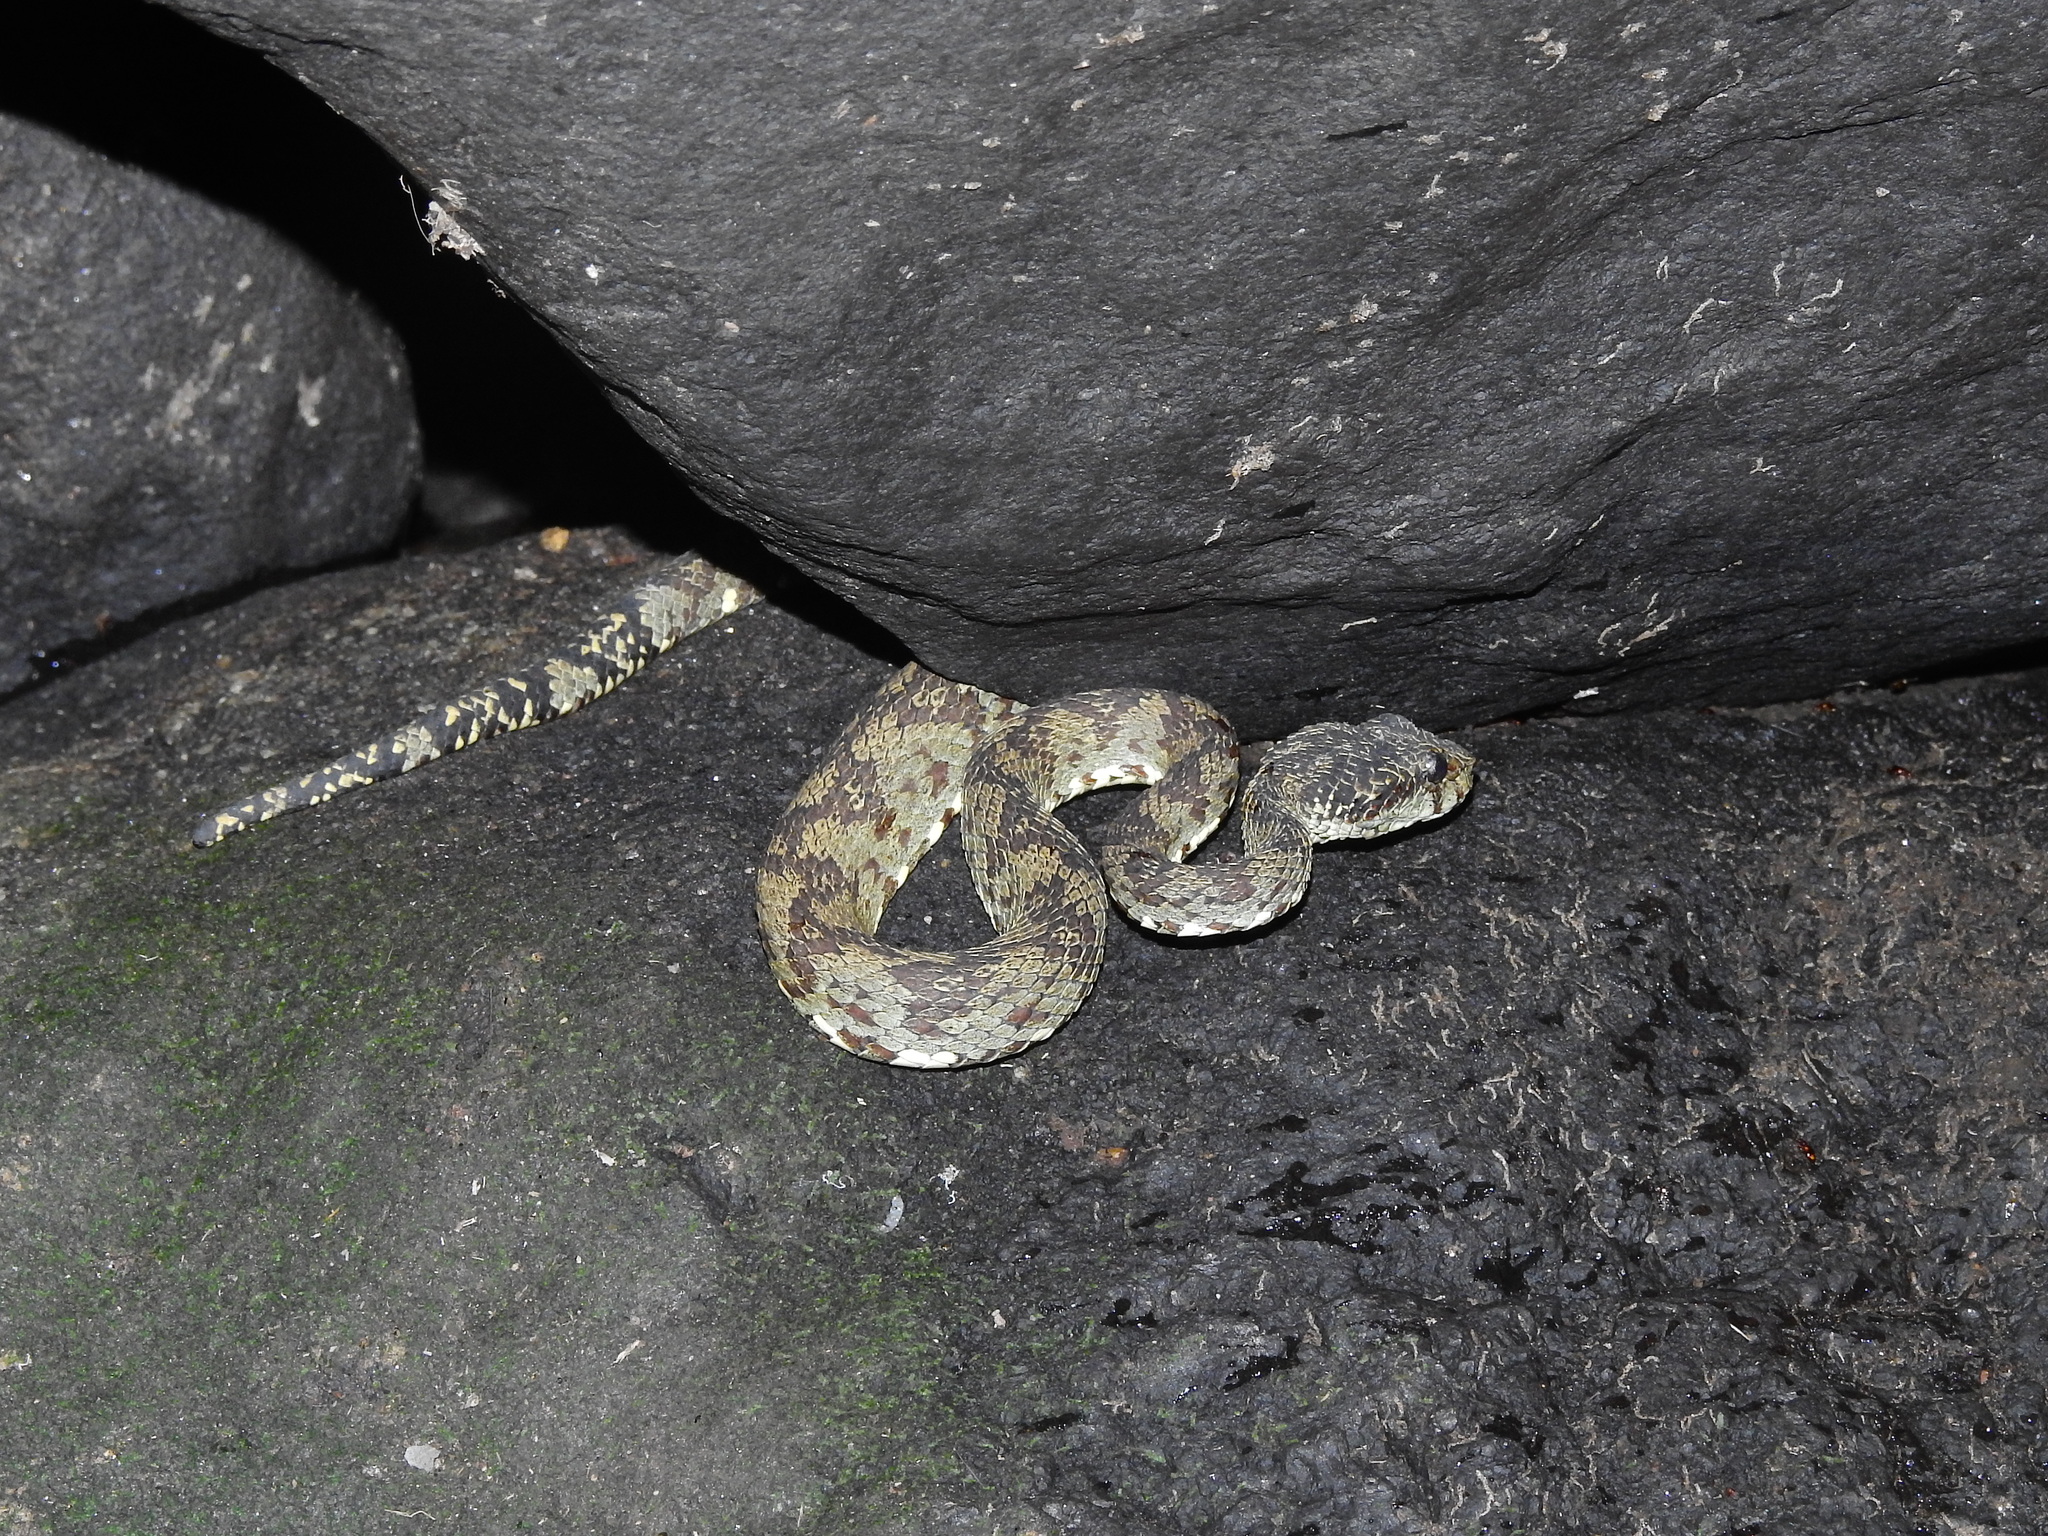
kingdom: Animalia
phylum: Chordata
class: Squamata
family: Viperidae
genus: Craspedocephalus
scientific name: Craspedocephalus travancoricus
